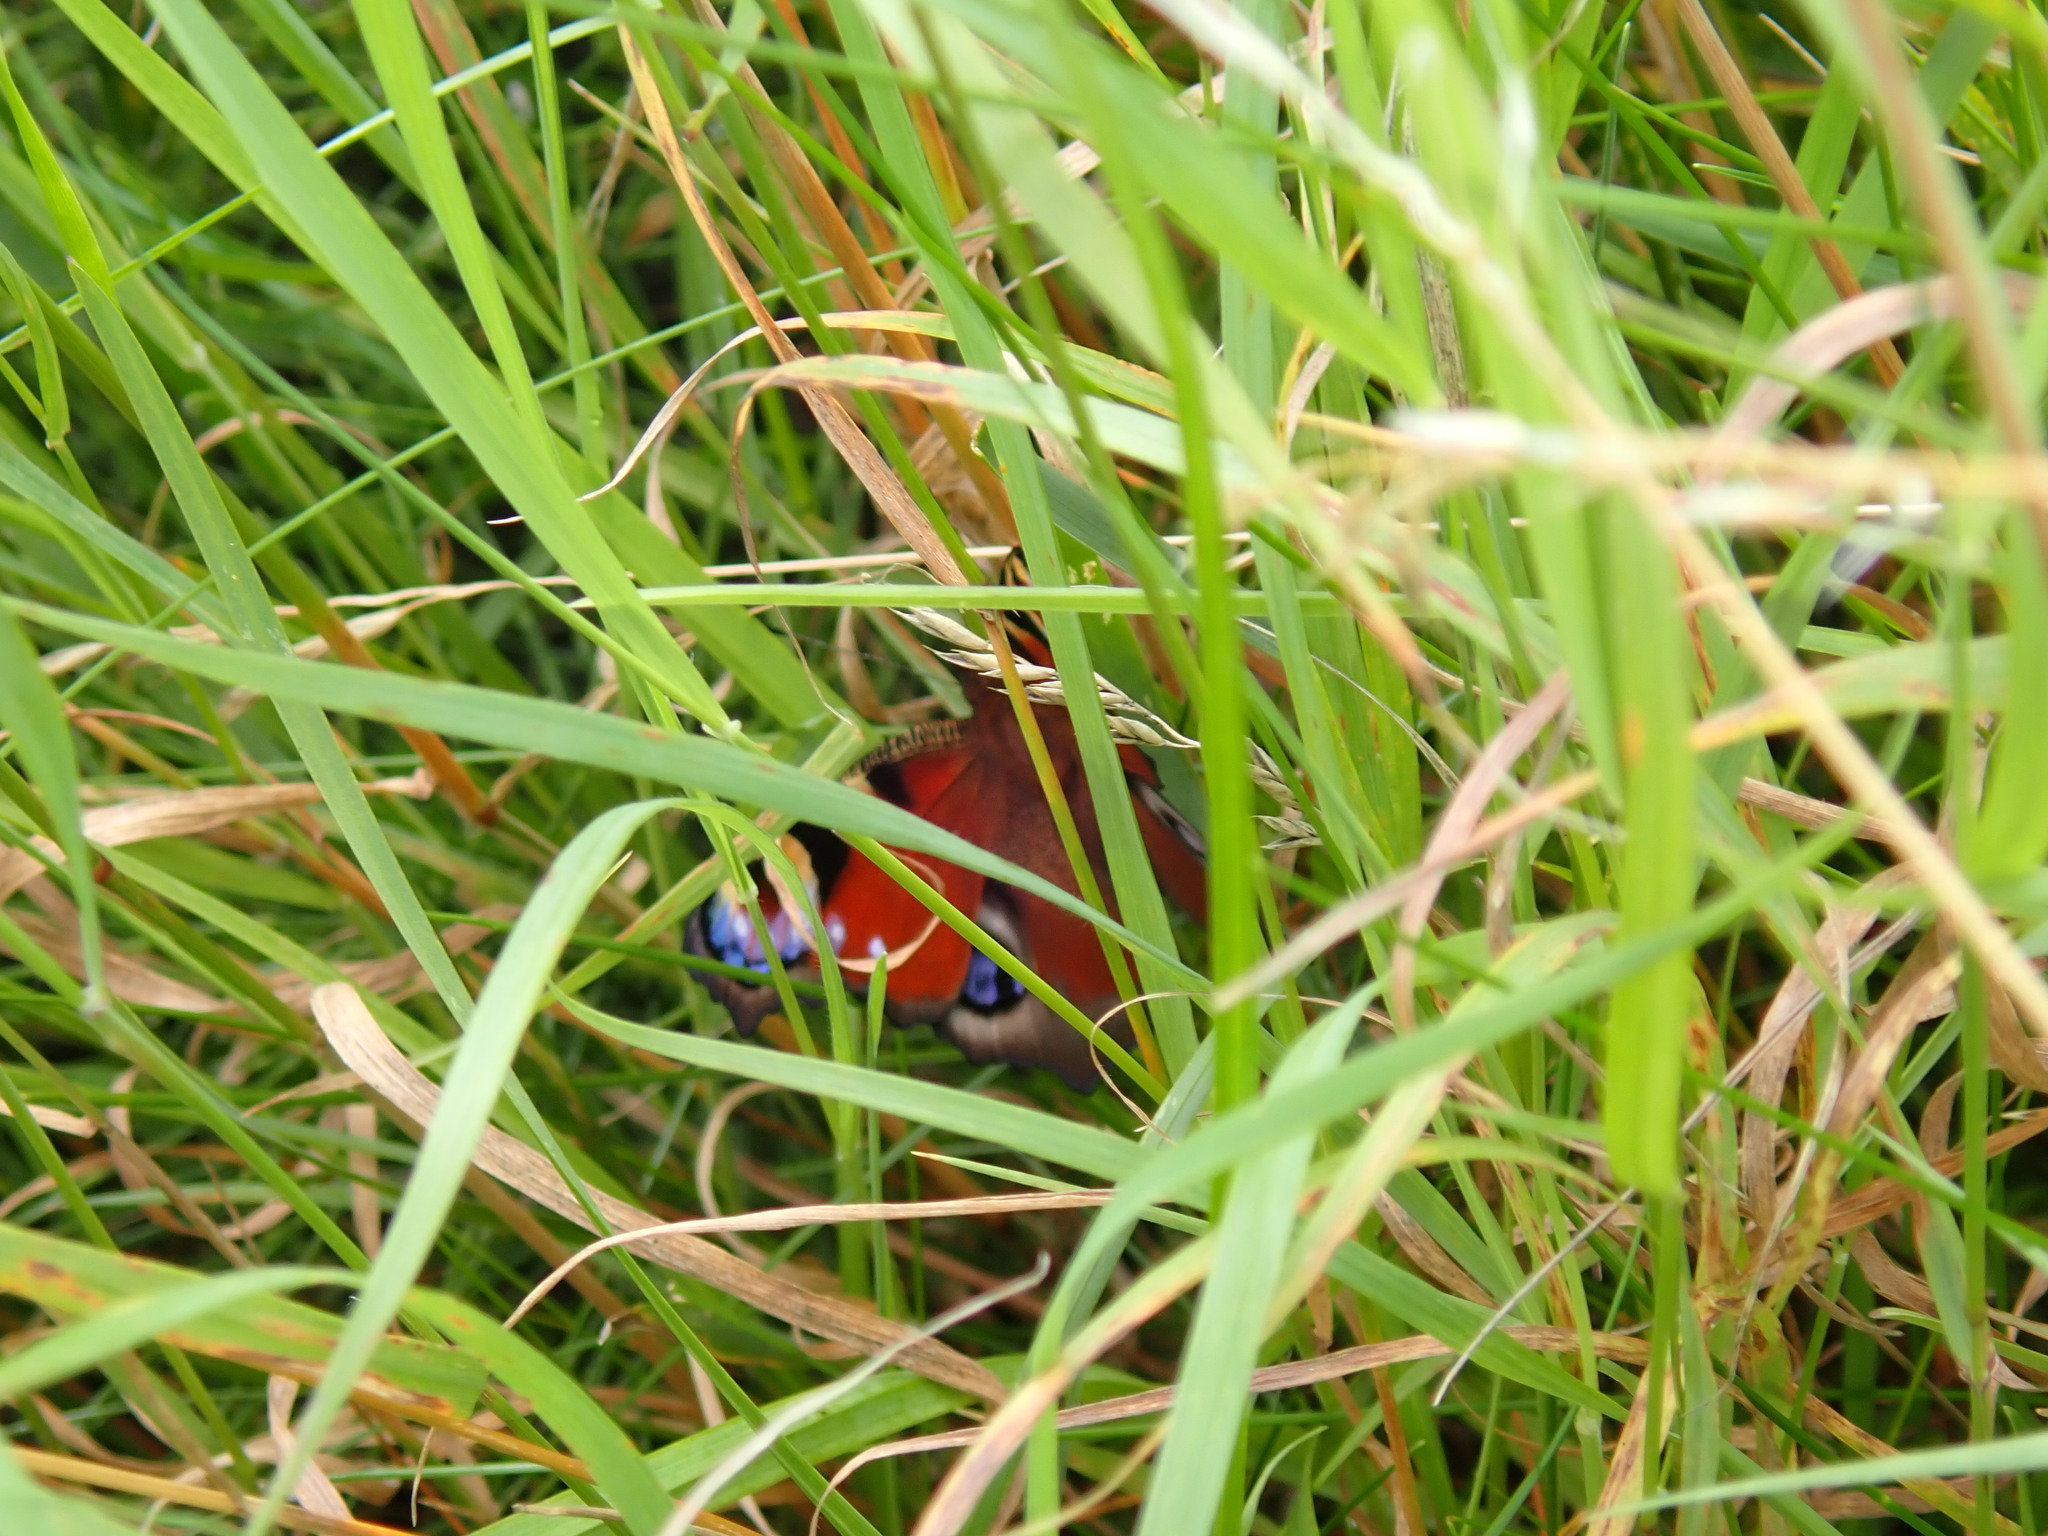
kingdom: Animalia
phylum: Arthropoda
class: Insecta
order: Lepidoptera
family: Nymphalidae
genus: Aglais
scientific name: Aglais io
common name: Peacock
